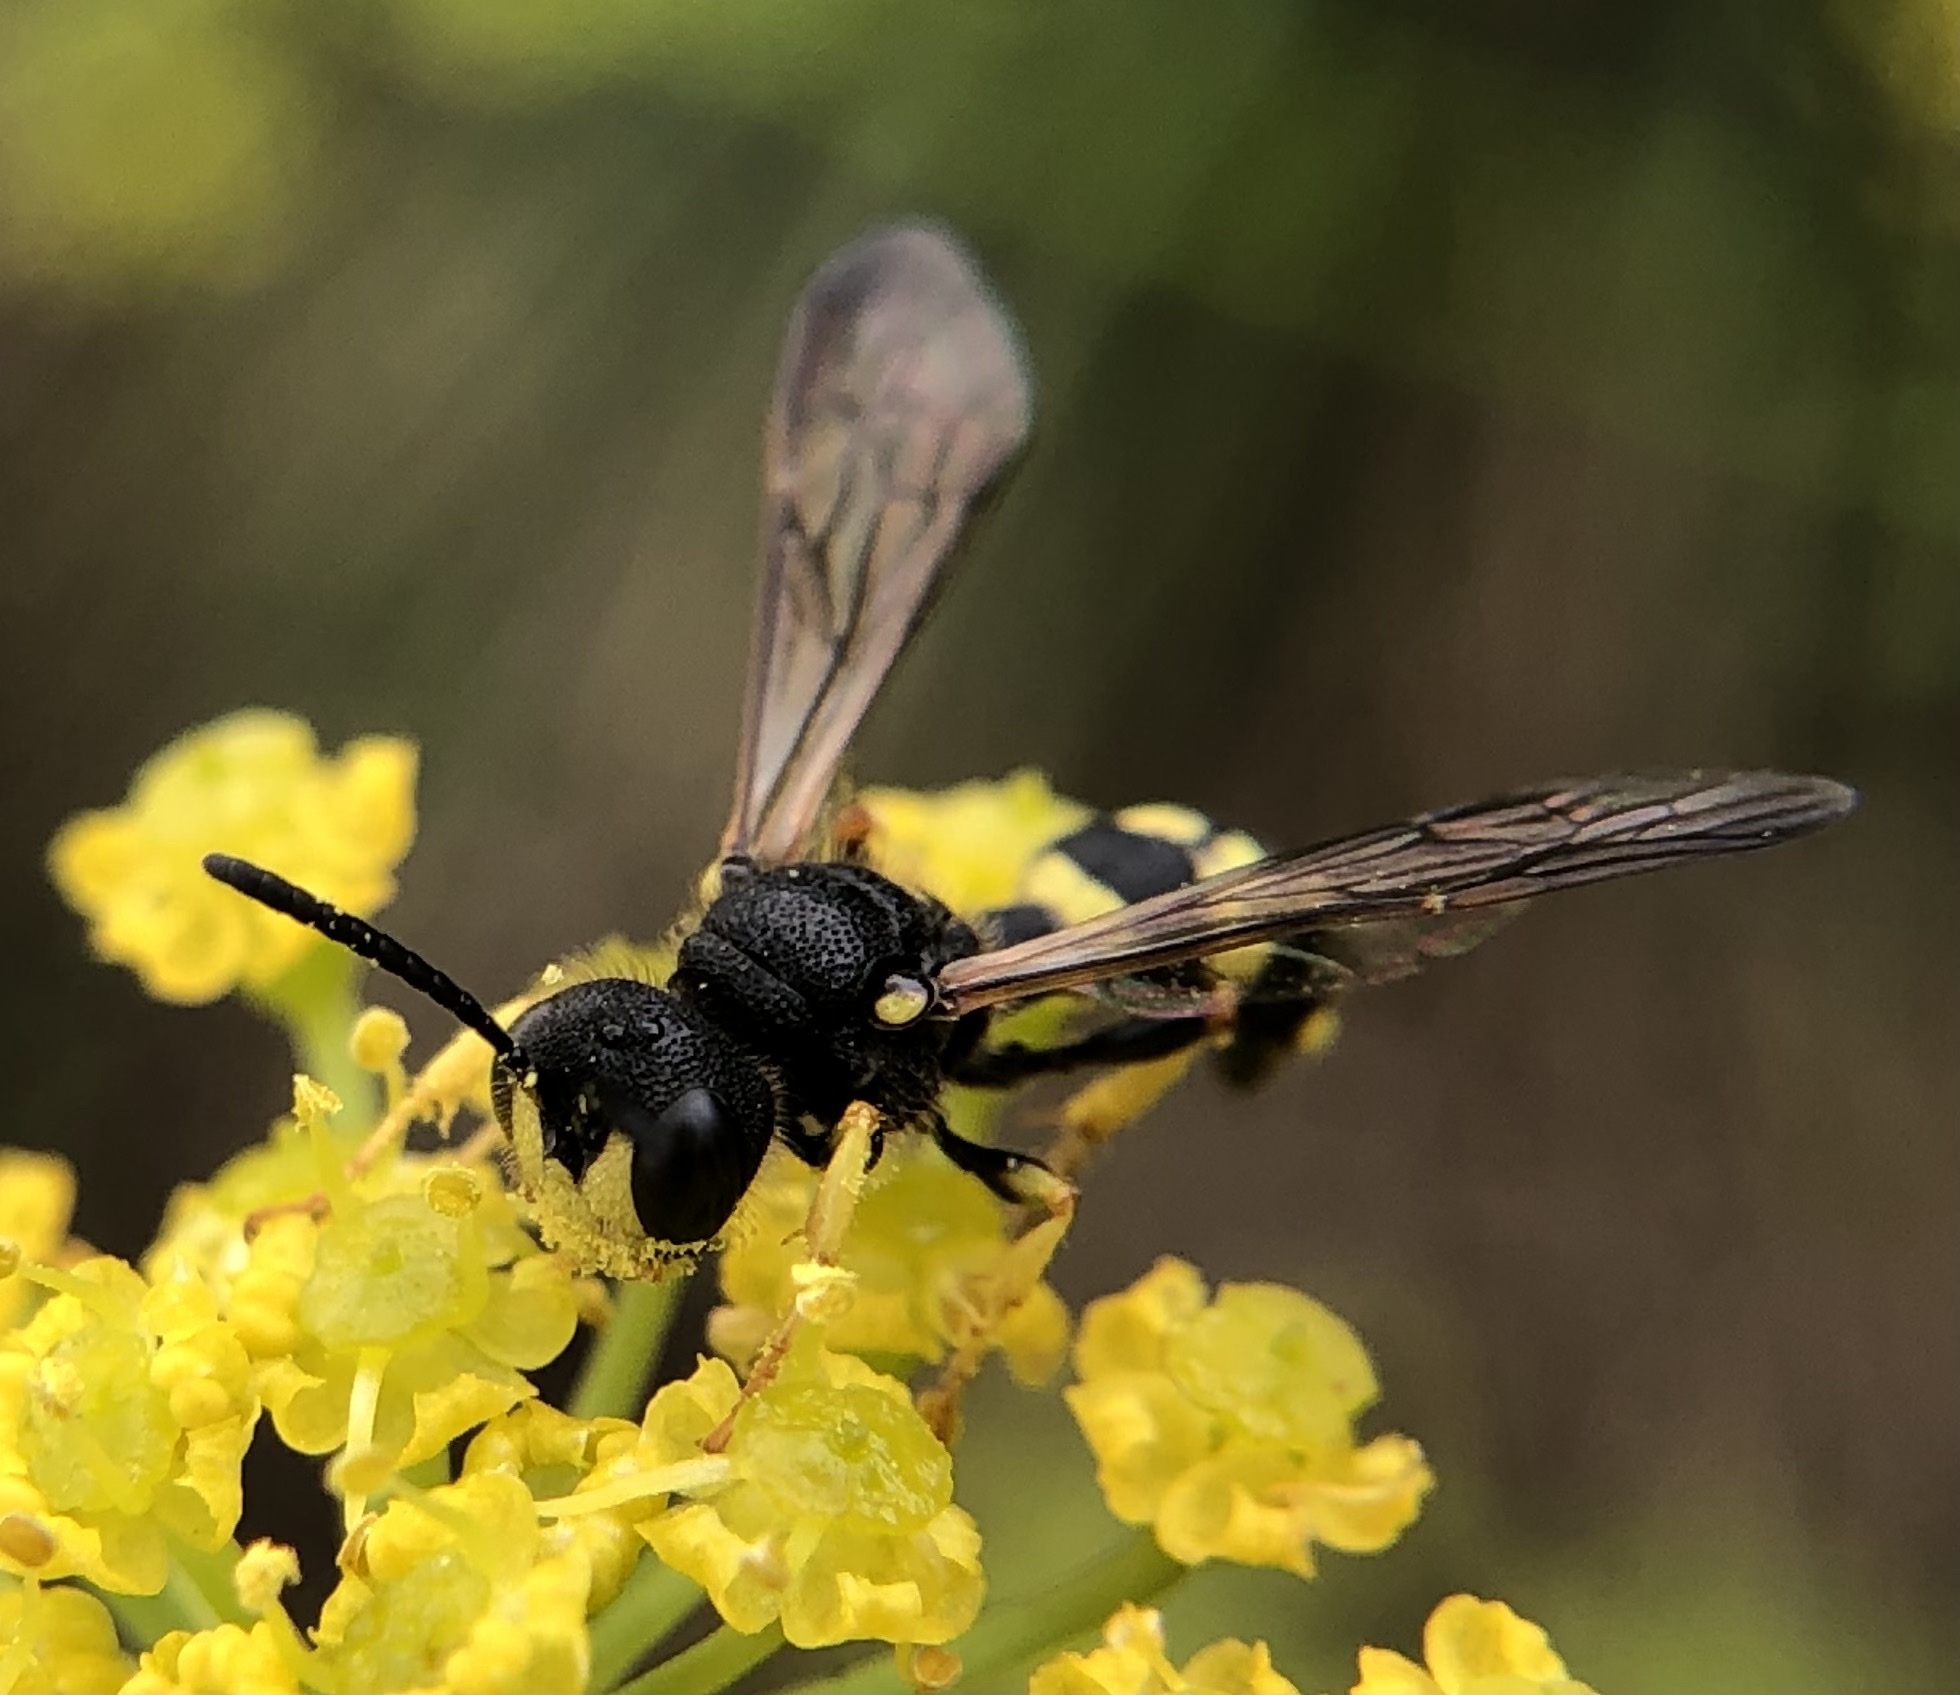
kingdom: Animalia
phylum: Arthropoda
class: Insecta
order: Hymenoptera
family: Crabronidae
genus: Cerceris
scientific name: Cerceris rybyensis
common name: Ornate tailed digger wasp
